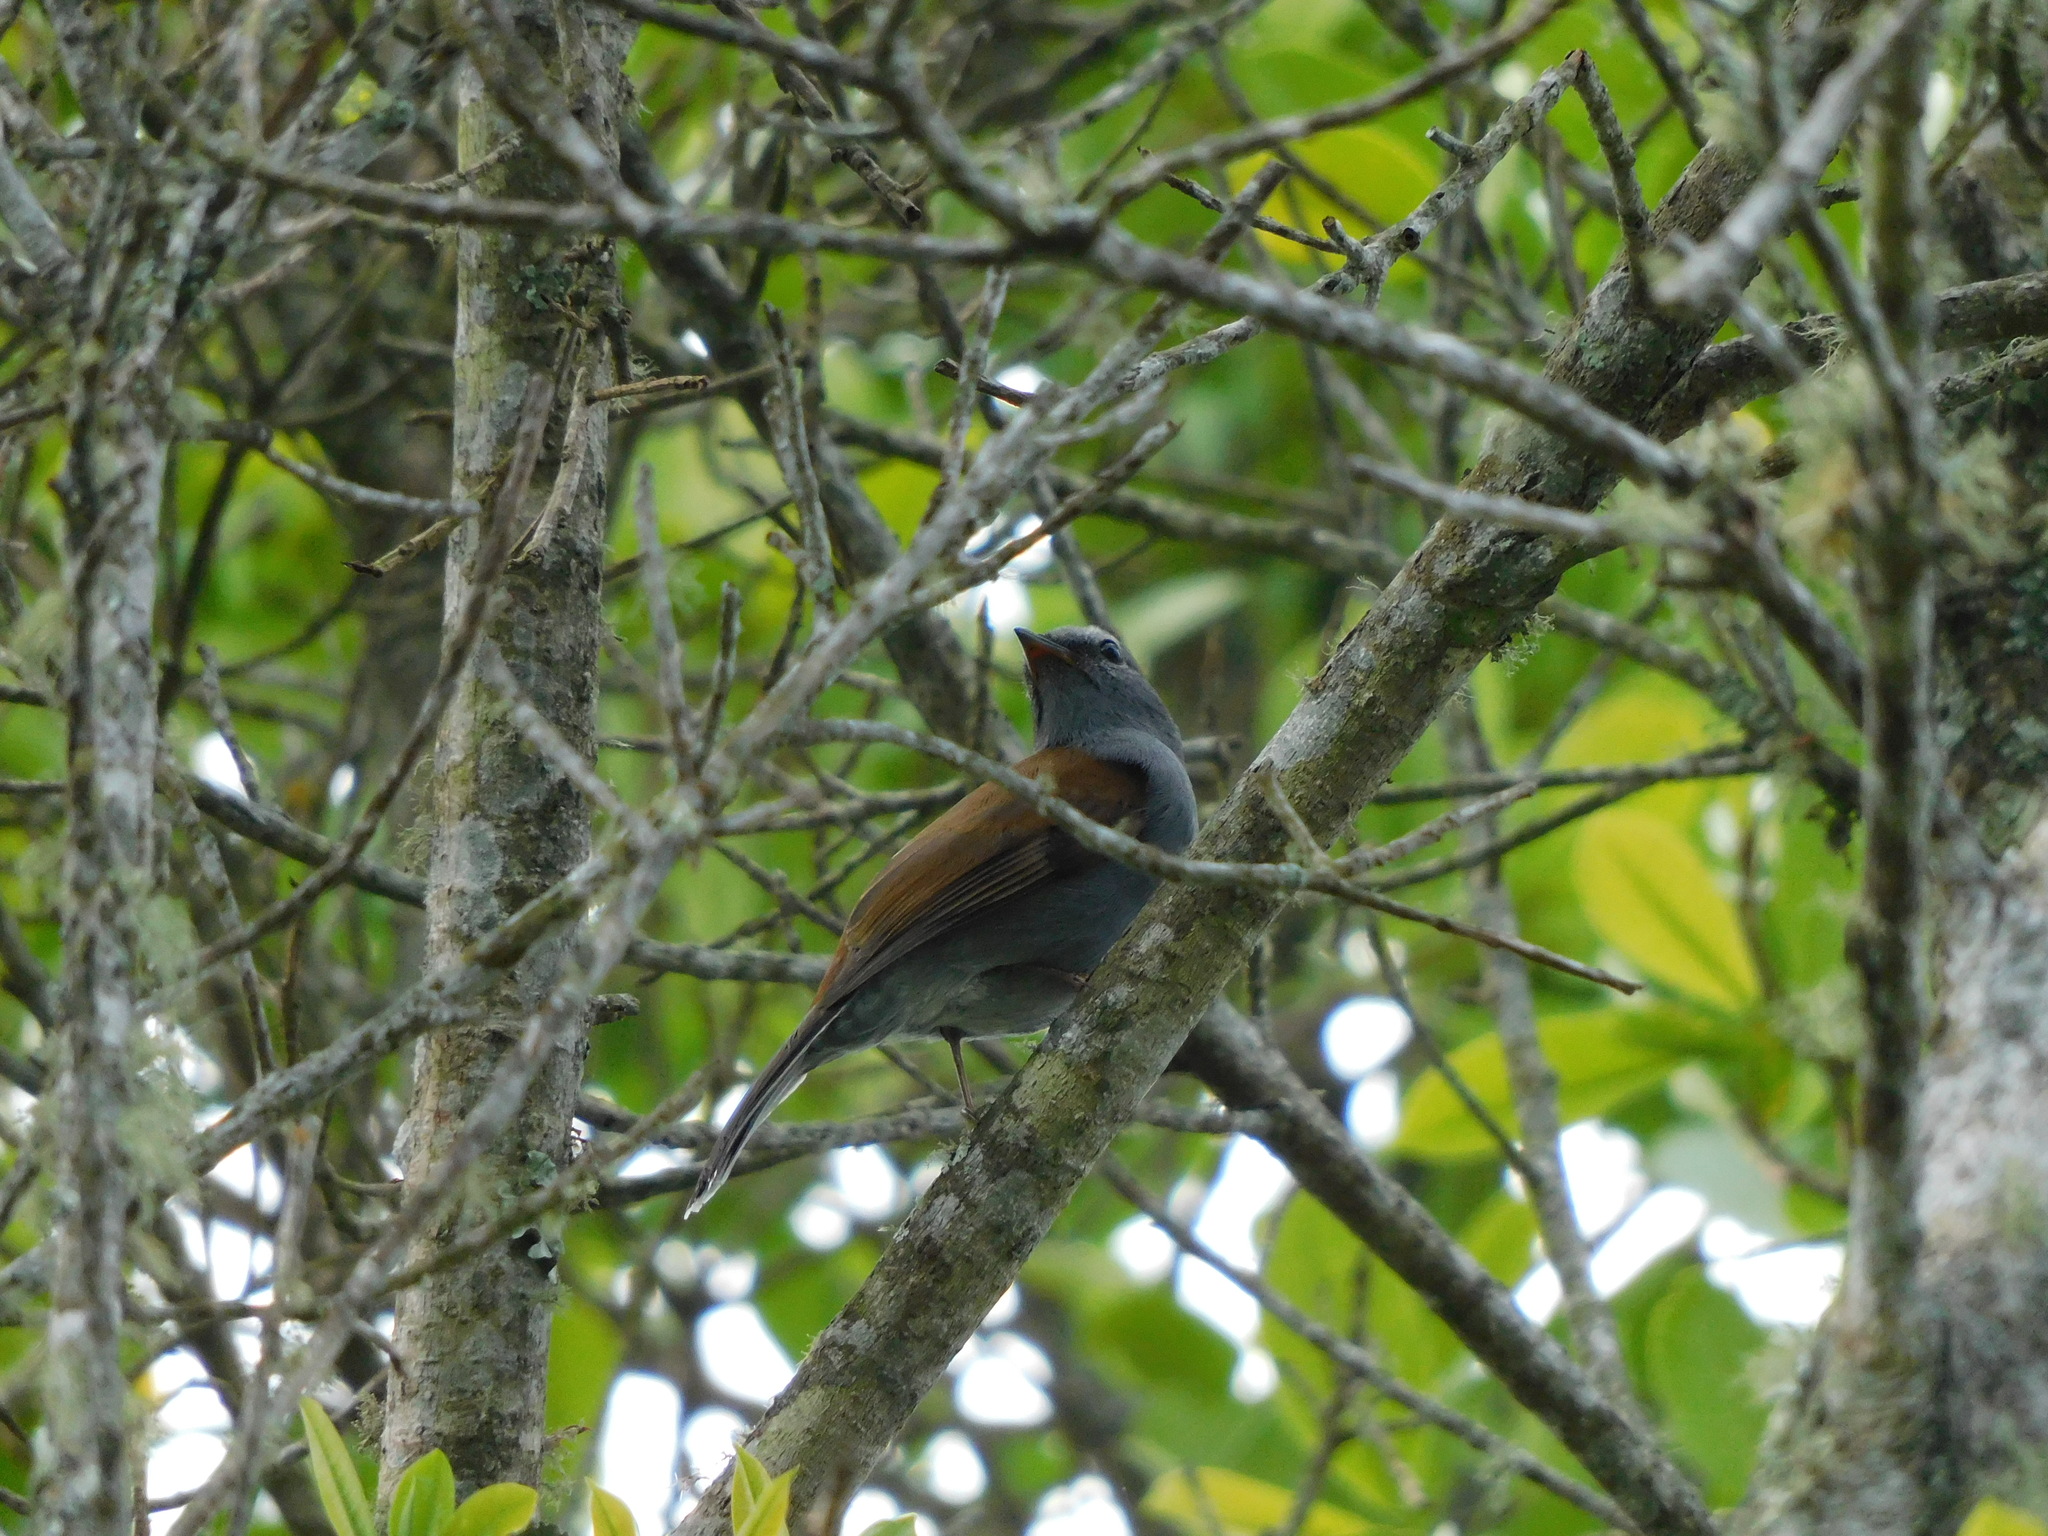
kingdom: Animalia
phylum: Chordata
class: Aves
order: Passeriformes
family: Turdidae
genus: Myadestes
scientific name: Myadestes ralloides
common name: Andean solitaire
